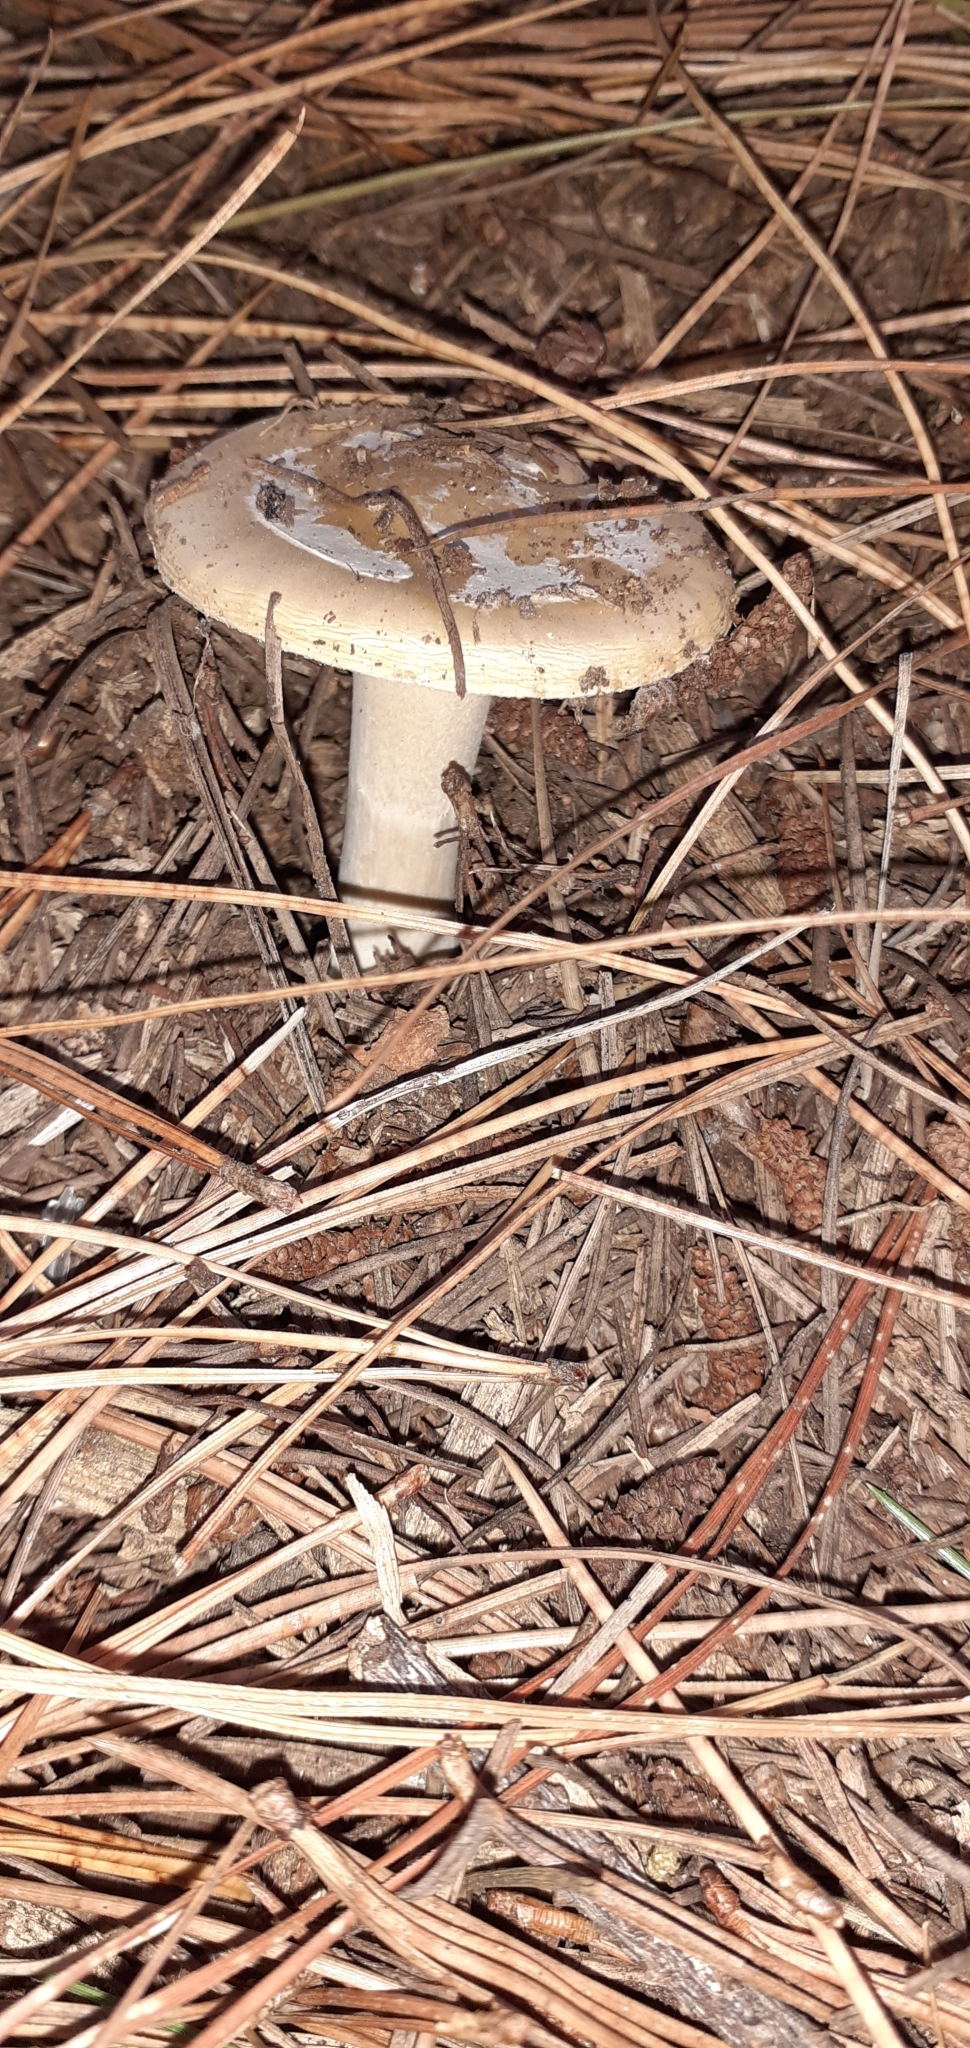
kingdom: Fungi
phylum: Basidiomycota
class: Agaricomycetes
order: Agaricales
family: Amanitaceae
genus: Amanita
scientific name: Amanita gemmata
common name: Jewelled amanita
